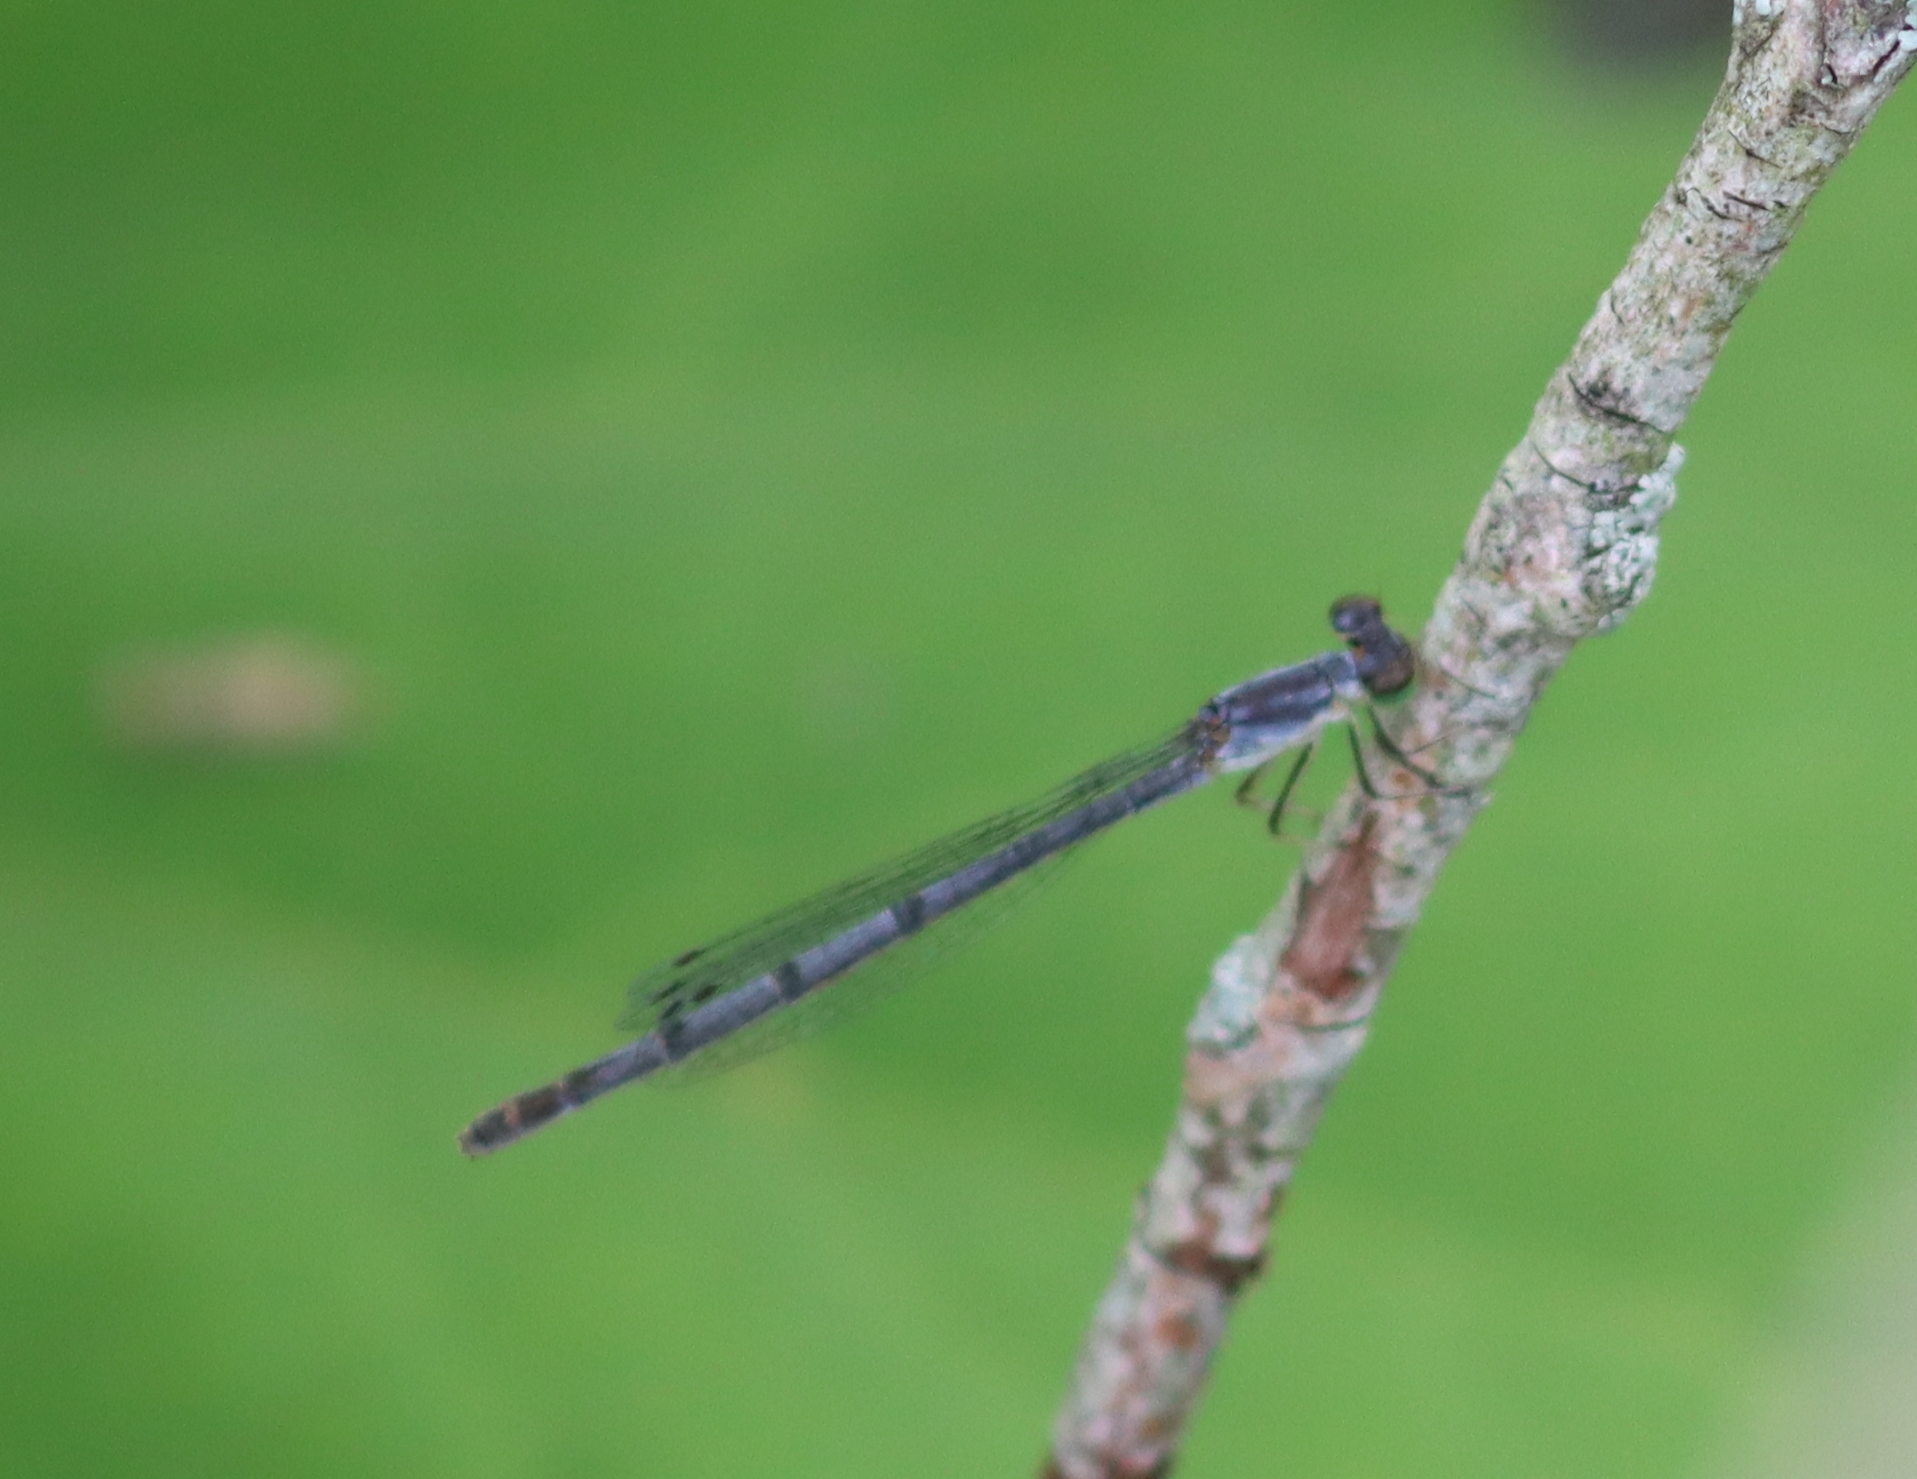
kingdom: Animalia
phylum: Arthropoda
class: Insecta
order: Odonata
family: Coenagrionidae
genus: Ischnura
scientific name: Ischnura posita
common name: Fragile forktail
